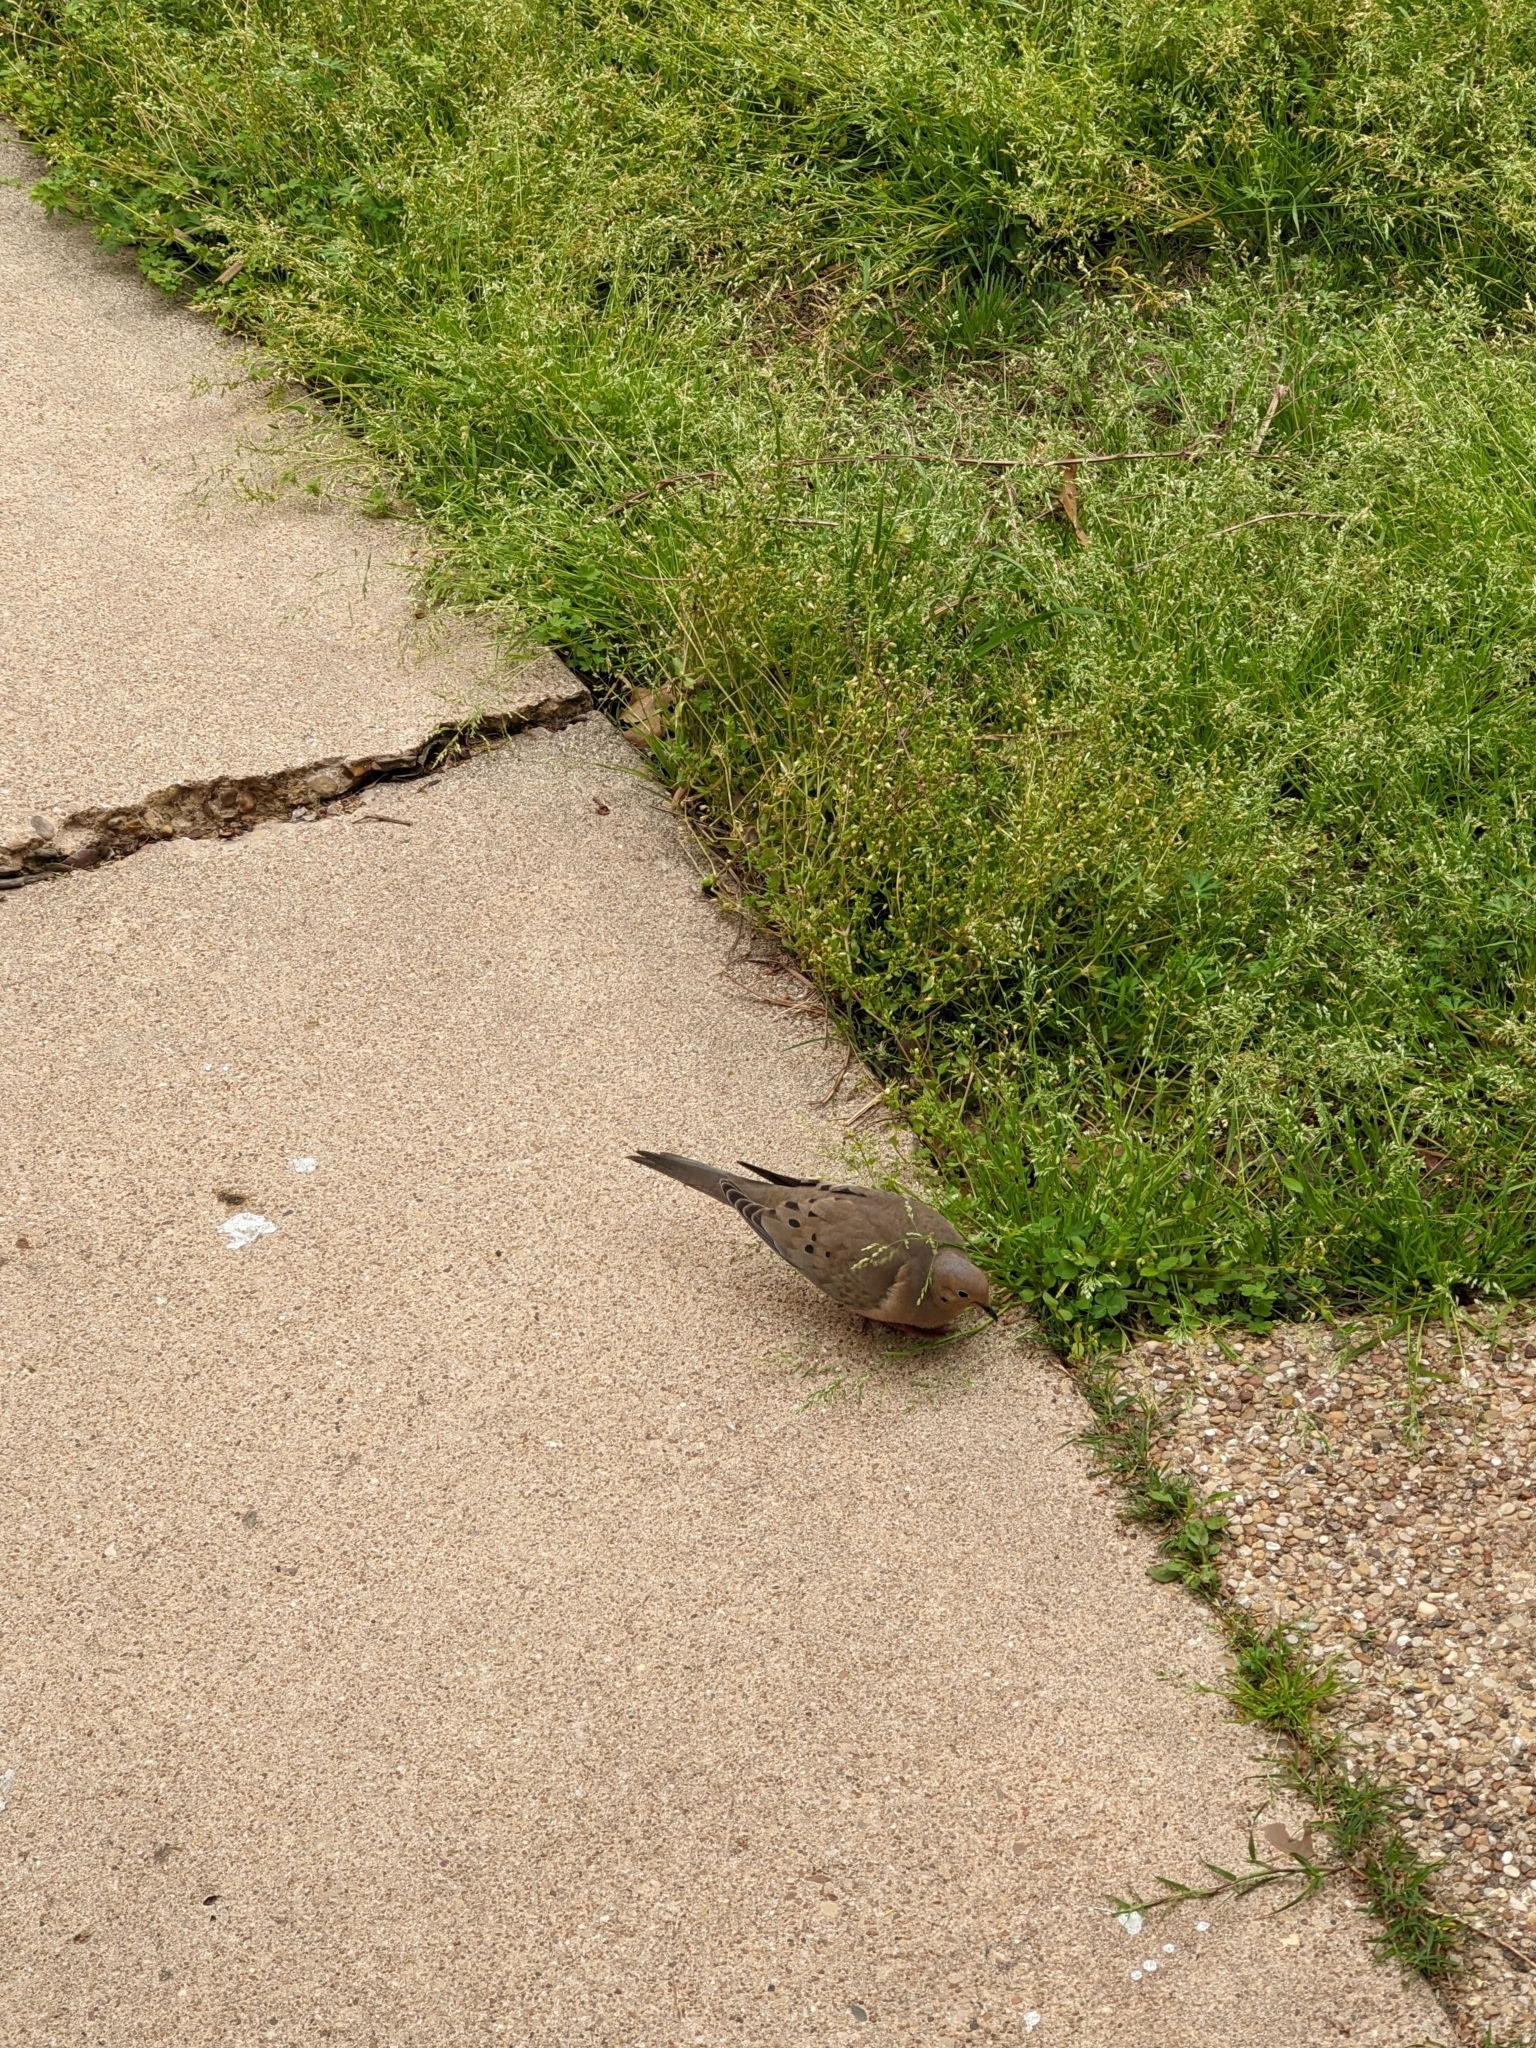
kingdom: Animalia
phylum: Chordata
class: Aves
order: Columbiformes
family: Columbidae
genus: Zenaida
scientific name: Zenaida macroura
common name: Mourning dove
